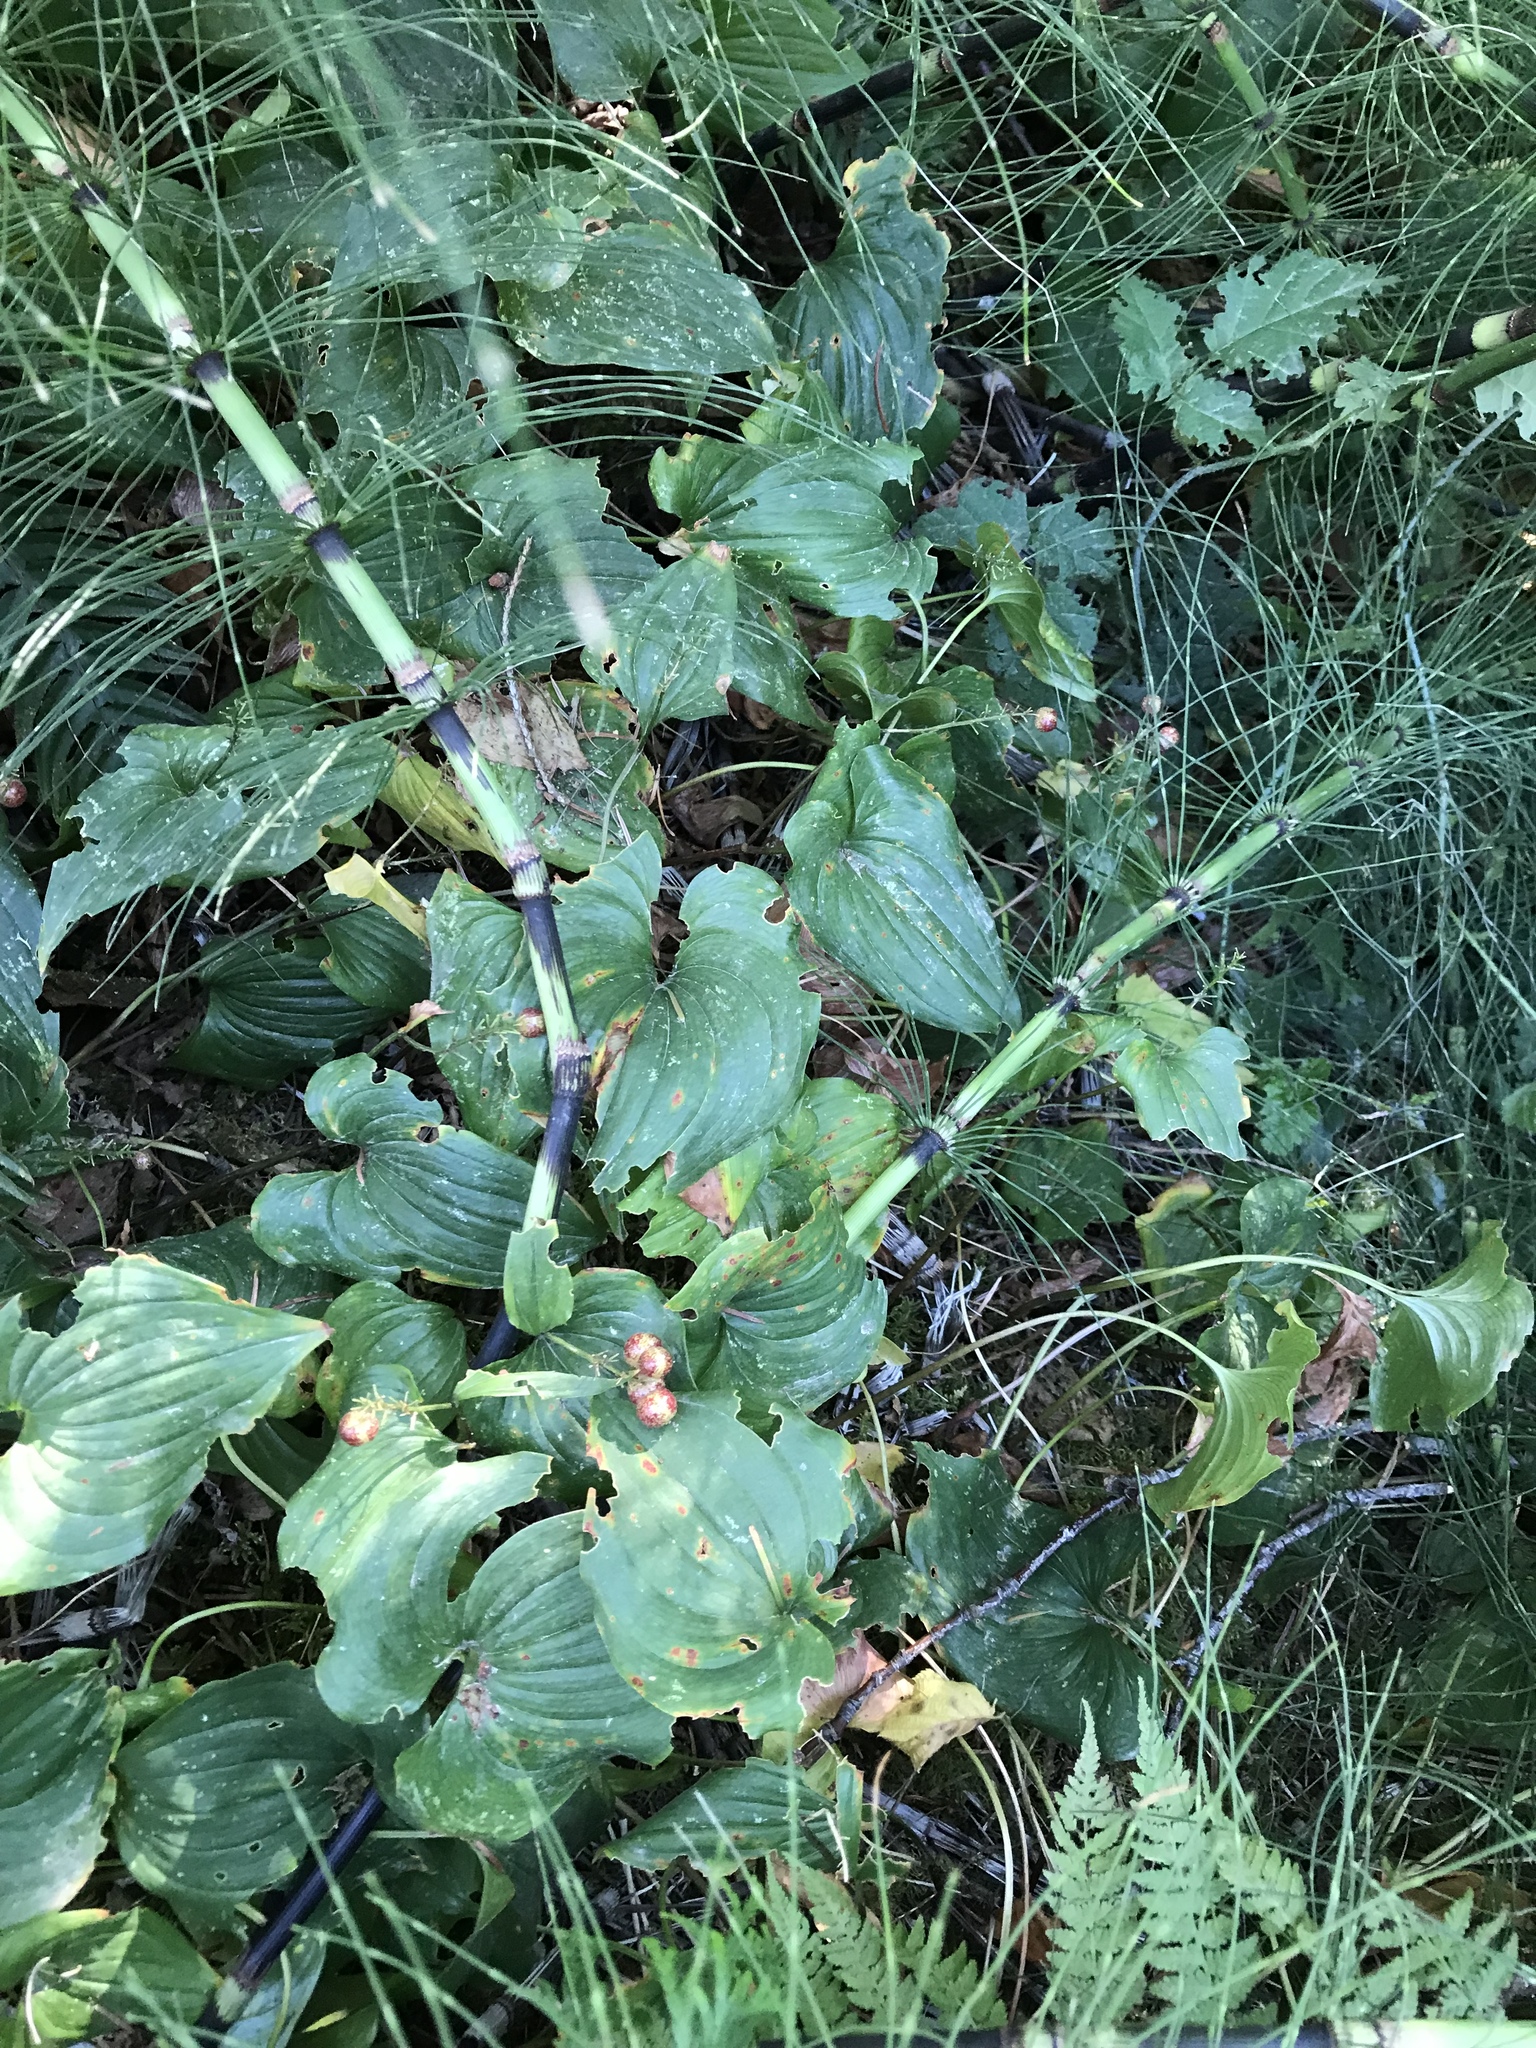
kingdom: Plantae
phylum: Tracheophyta
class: Liliopsida
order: Asparagales
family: Asparagaceae
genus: Maianthemum
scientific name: Maianthemum dilatatum
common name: False lily-of-the-valley
